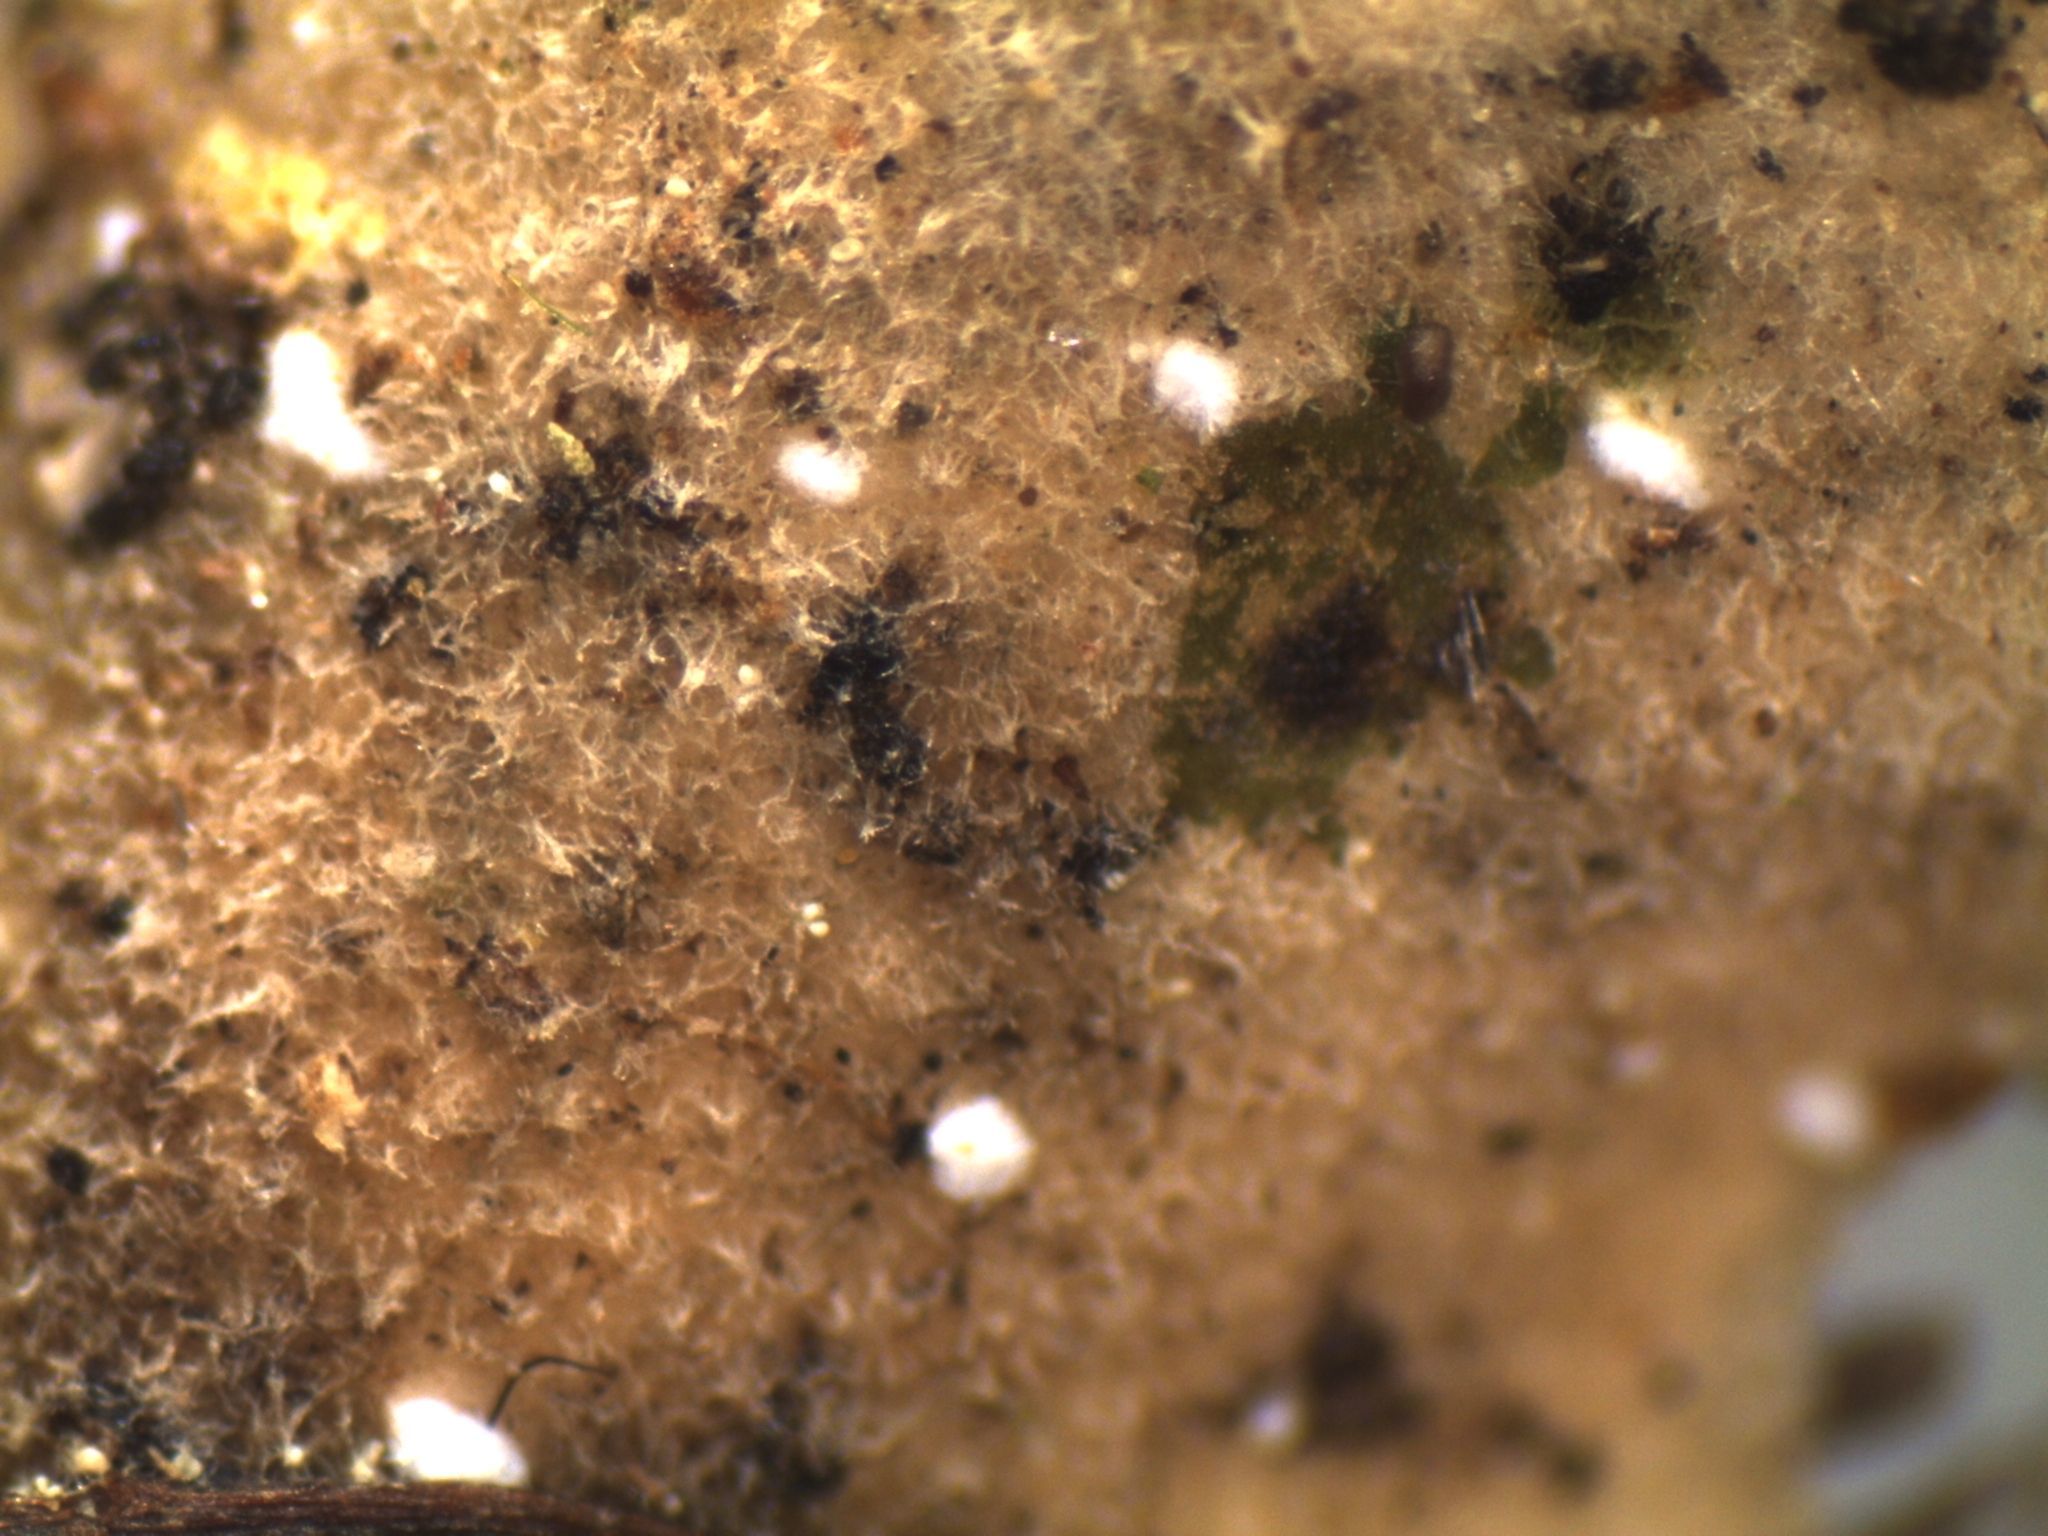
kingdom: Fungi
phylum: Ascomycota
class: Lecanoromycetes
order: Peltigerales
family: Lobariaceae
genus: Pseudocyphellaria
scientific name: Pseudocyphellaria dissimilis
